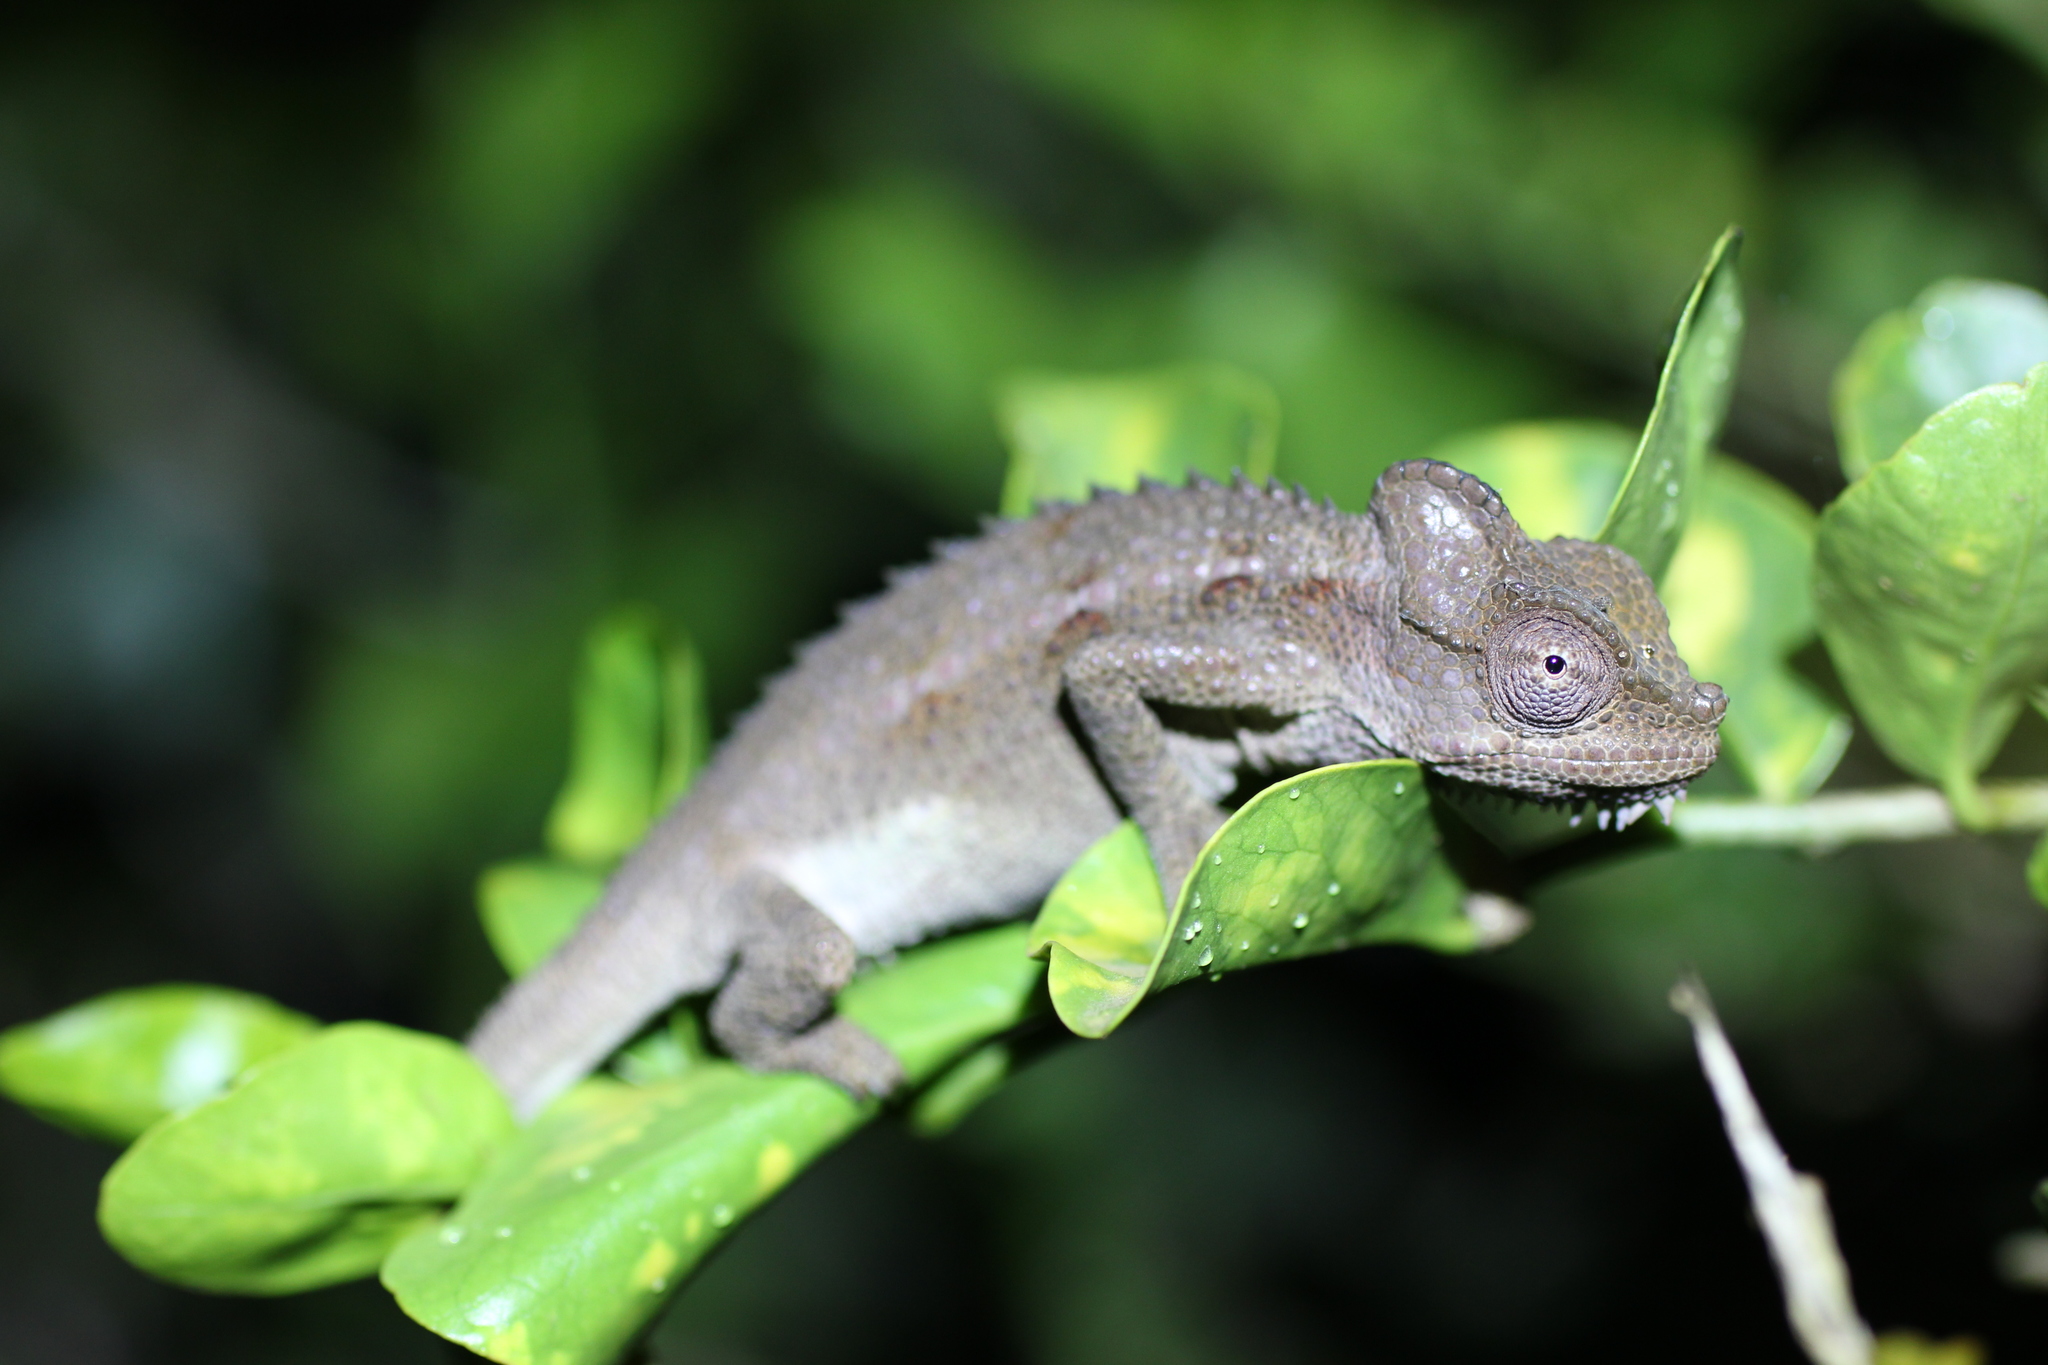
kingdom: Animalia
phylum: Chordata
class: Squamata
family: Chamaeleonidae
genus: Trioceros
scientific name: Trioceros hoehnelii
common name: High-casqued chameleon
